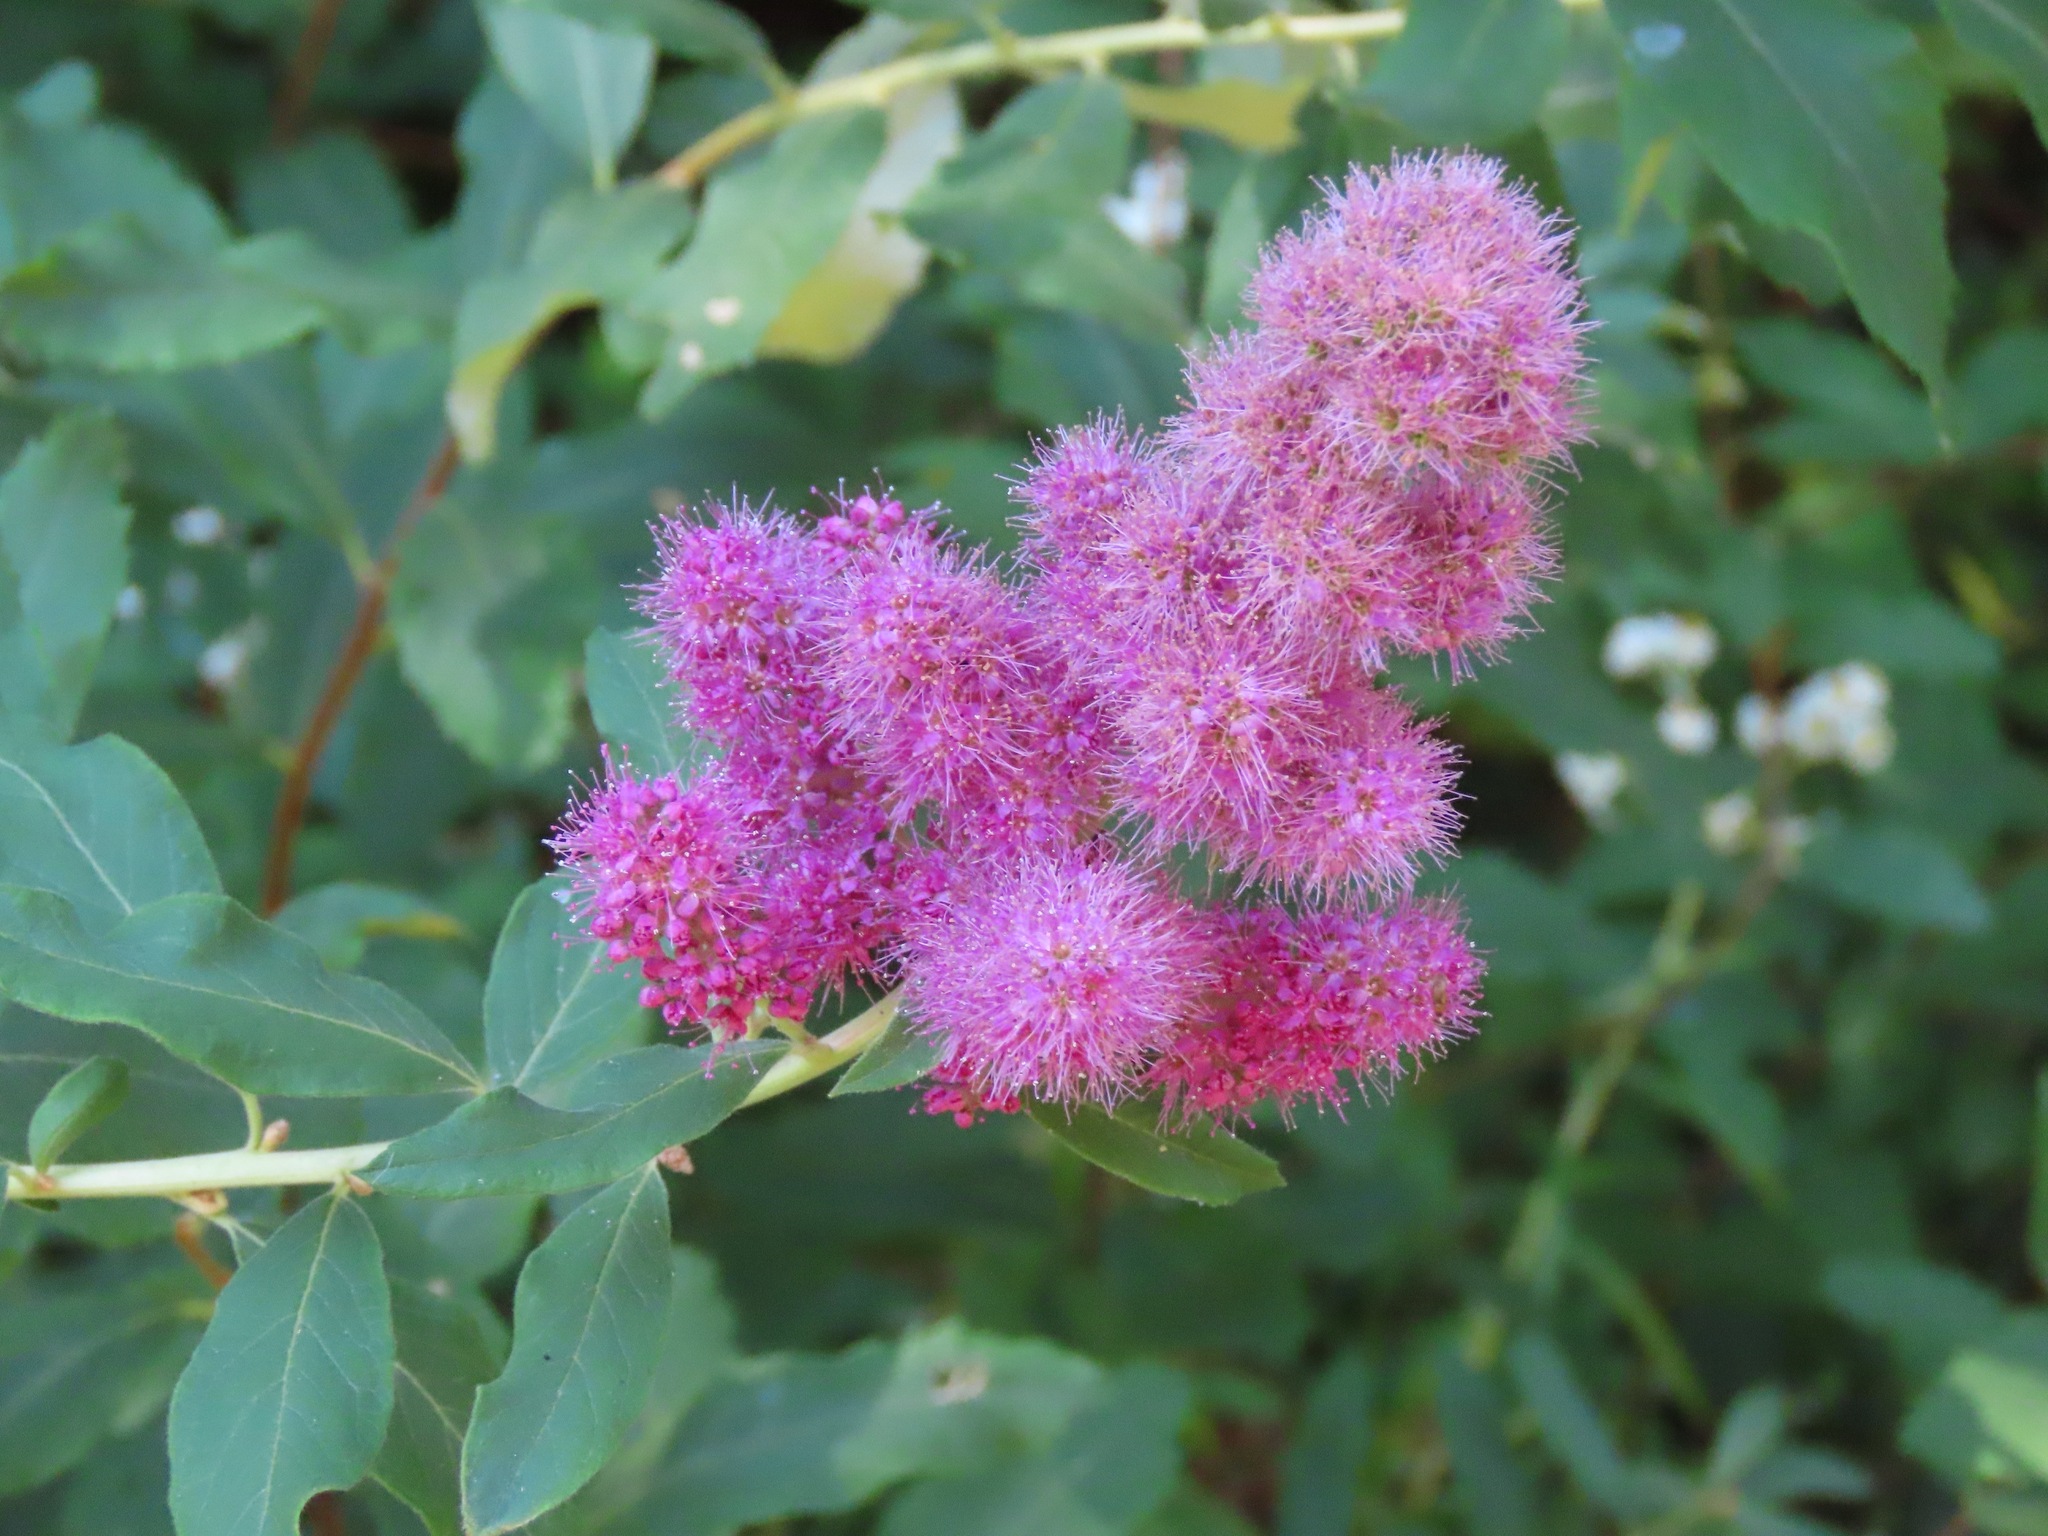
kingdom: Plantae
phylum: Tracheophyta
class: Magnoliopsida
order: Rosales
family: Rosaceae
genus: Spiraea
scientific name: Spiraea douglasii
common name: Steeplebush
